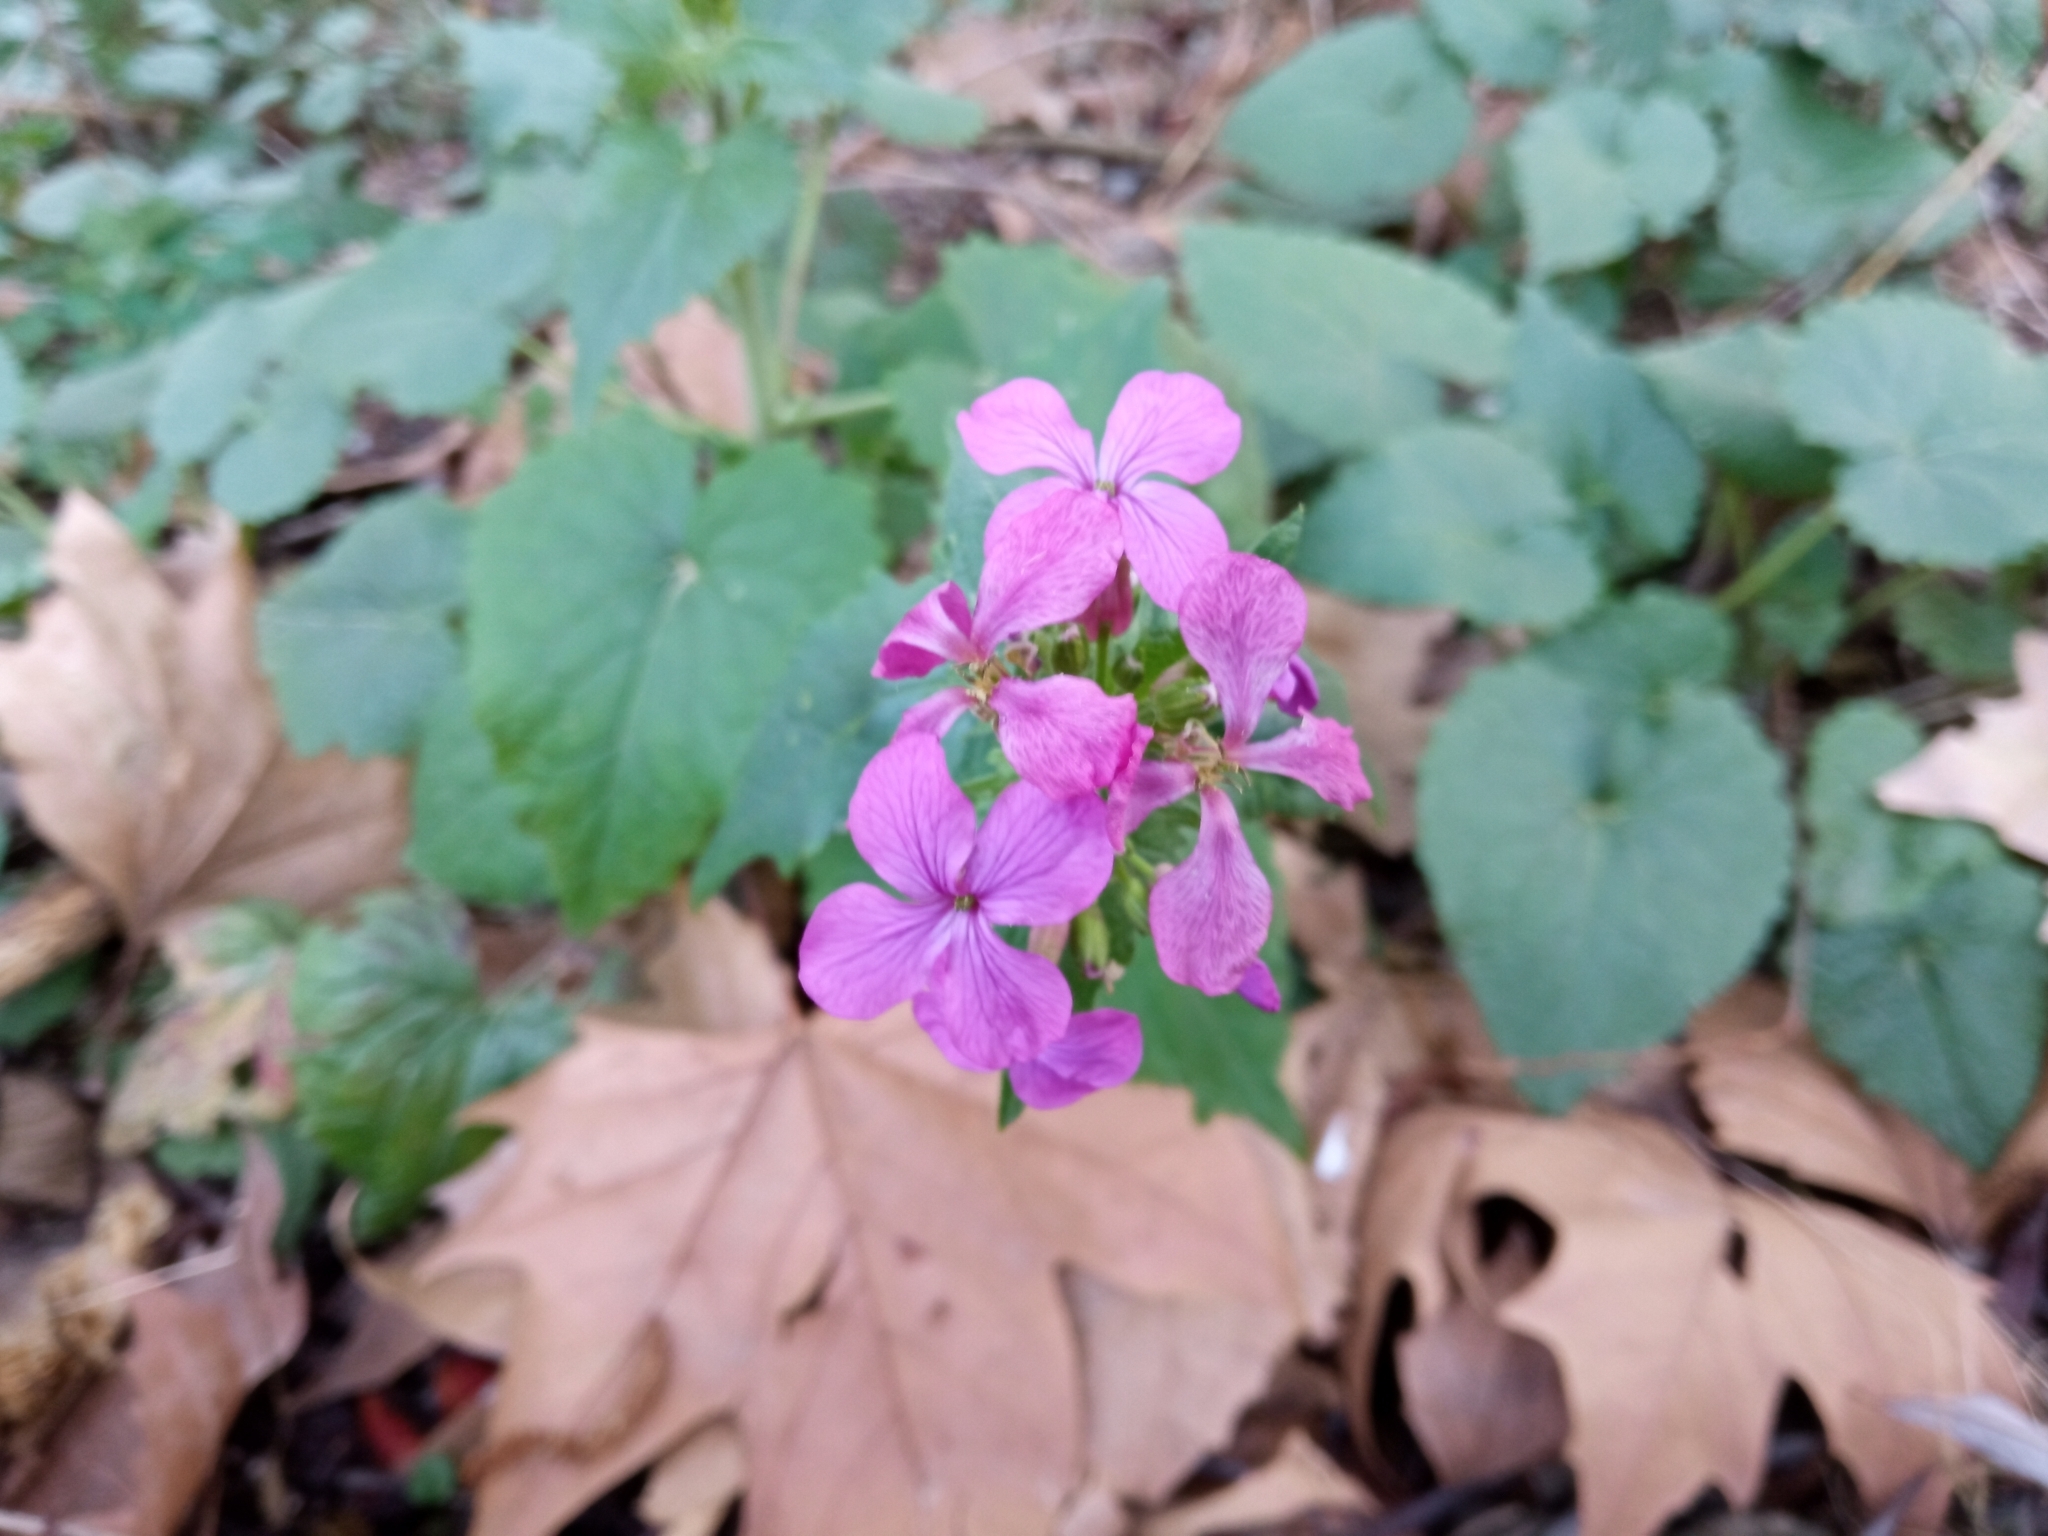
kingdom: Plantae
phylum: Tracheophyta
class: Magnoliopsida
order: Brassicales
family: Brassicaceae
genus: Lunaria
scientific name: Lunaria annua
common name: Honesty
